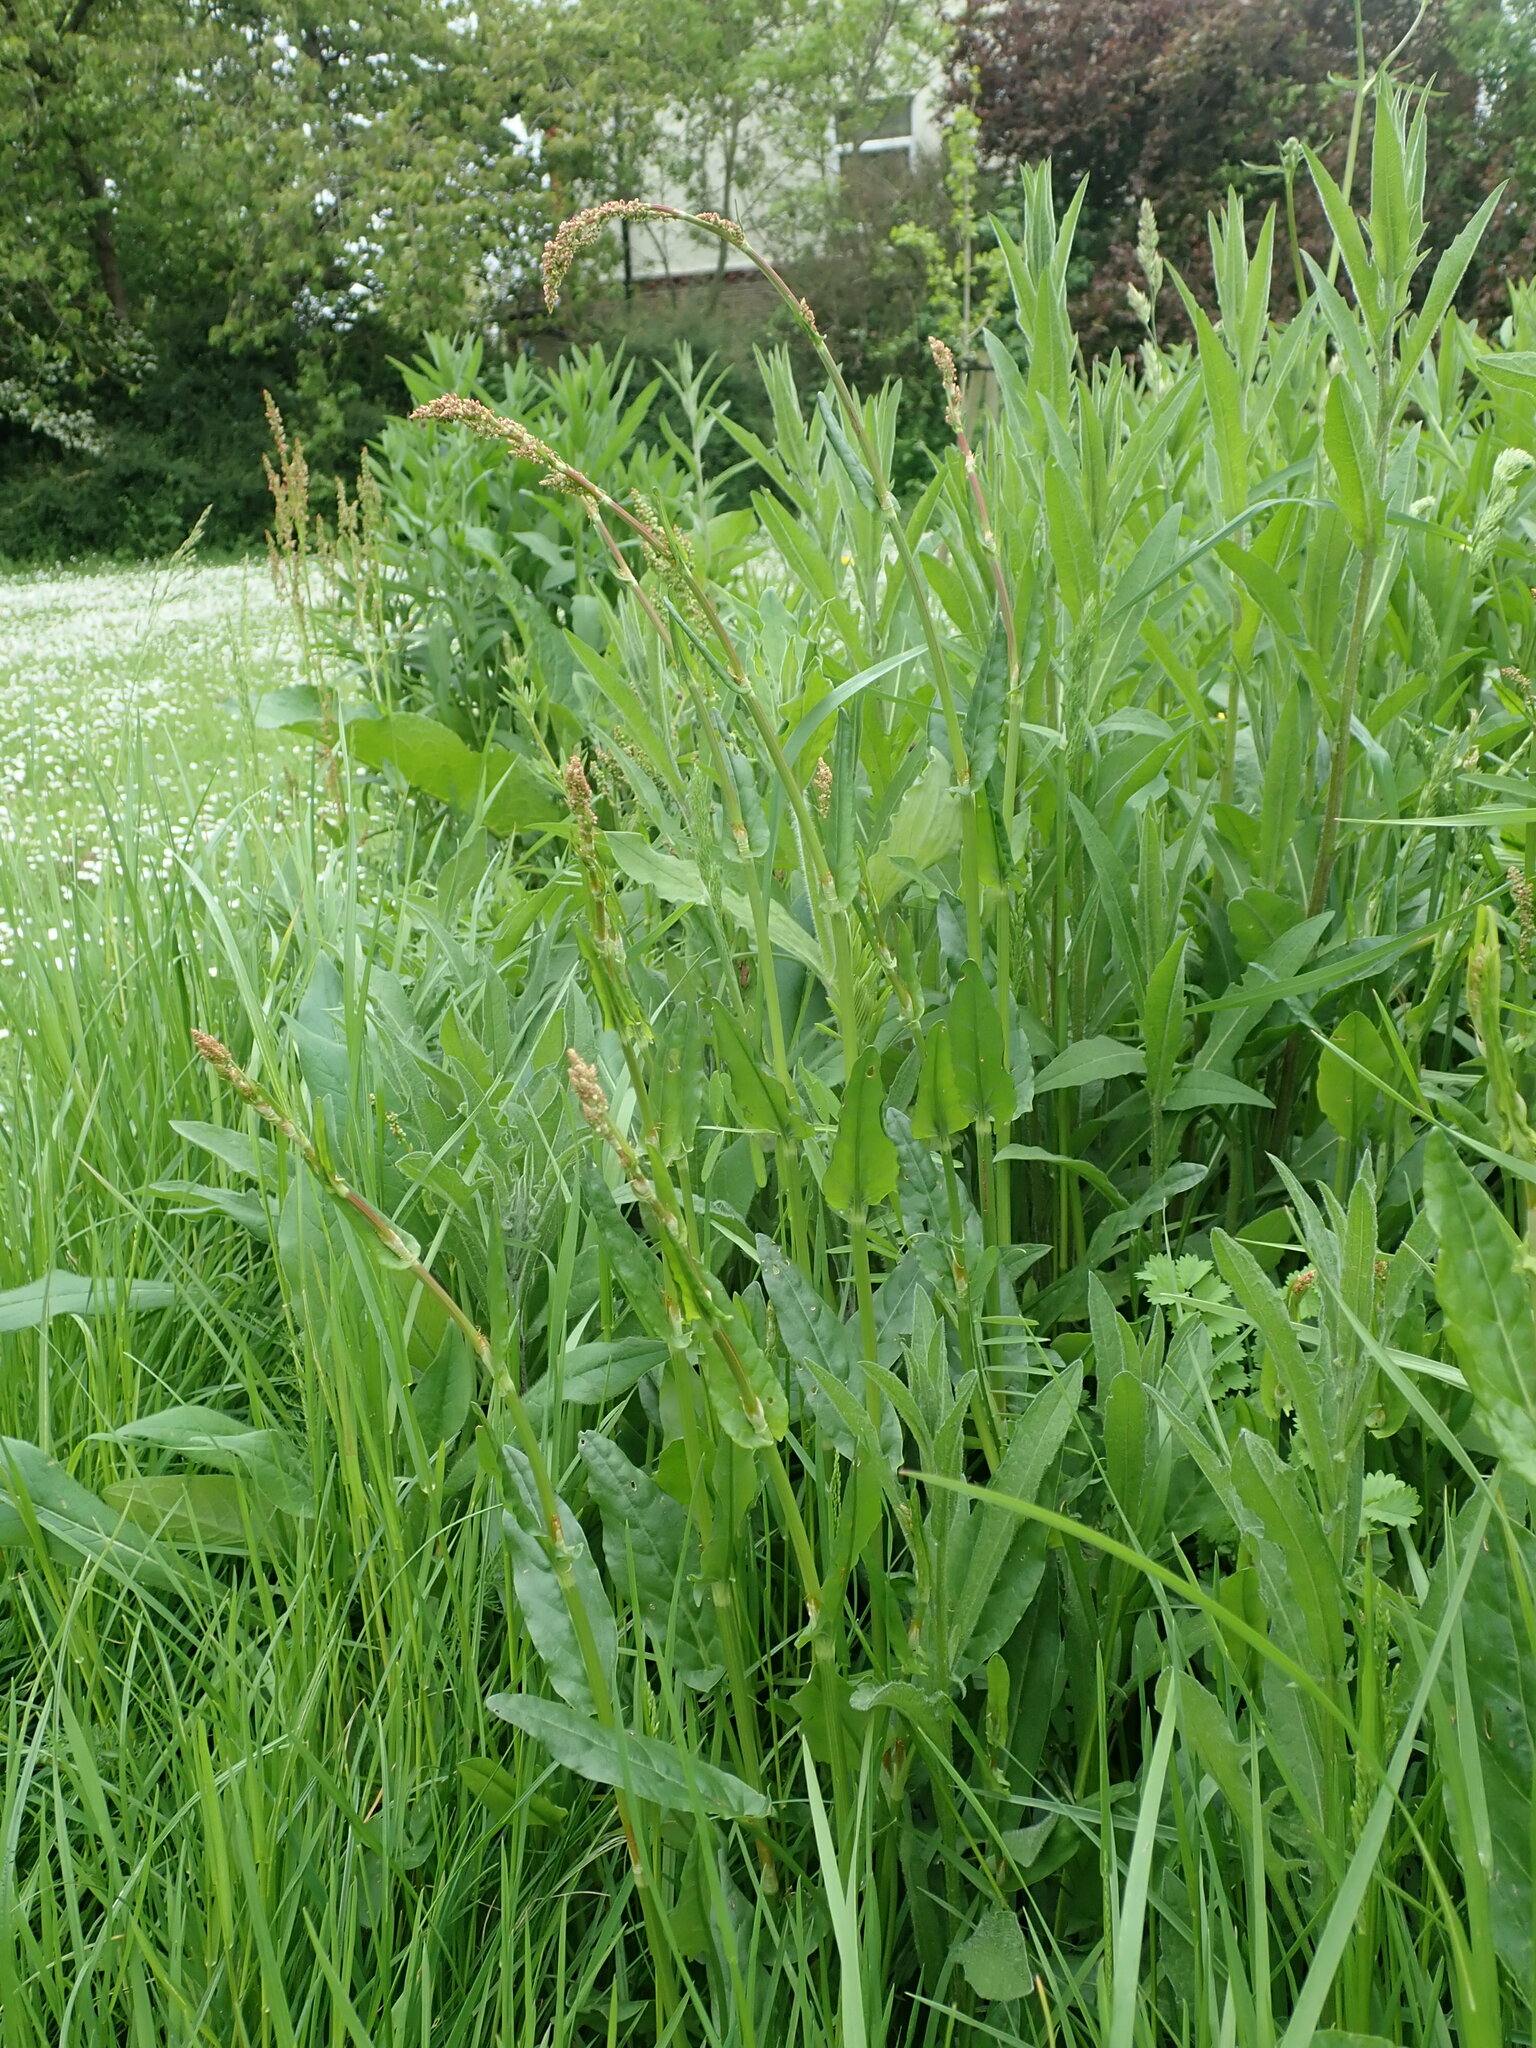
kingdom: Plantae
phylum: Tracheophyta
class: Magnoliopsida
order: Caryophyllales
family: Polygonaceae
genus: Rumex
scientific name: Rumex acetosa
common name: Garden sorrel
